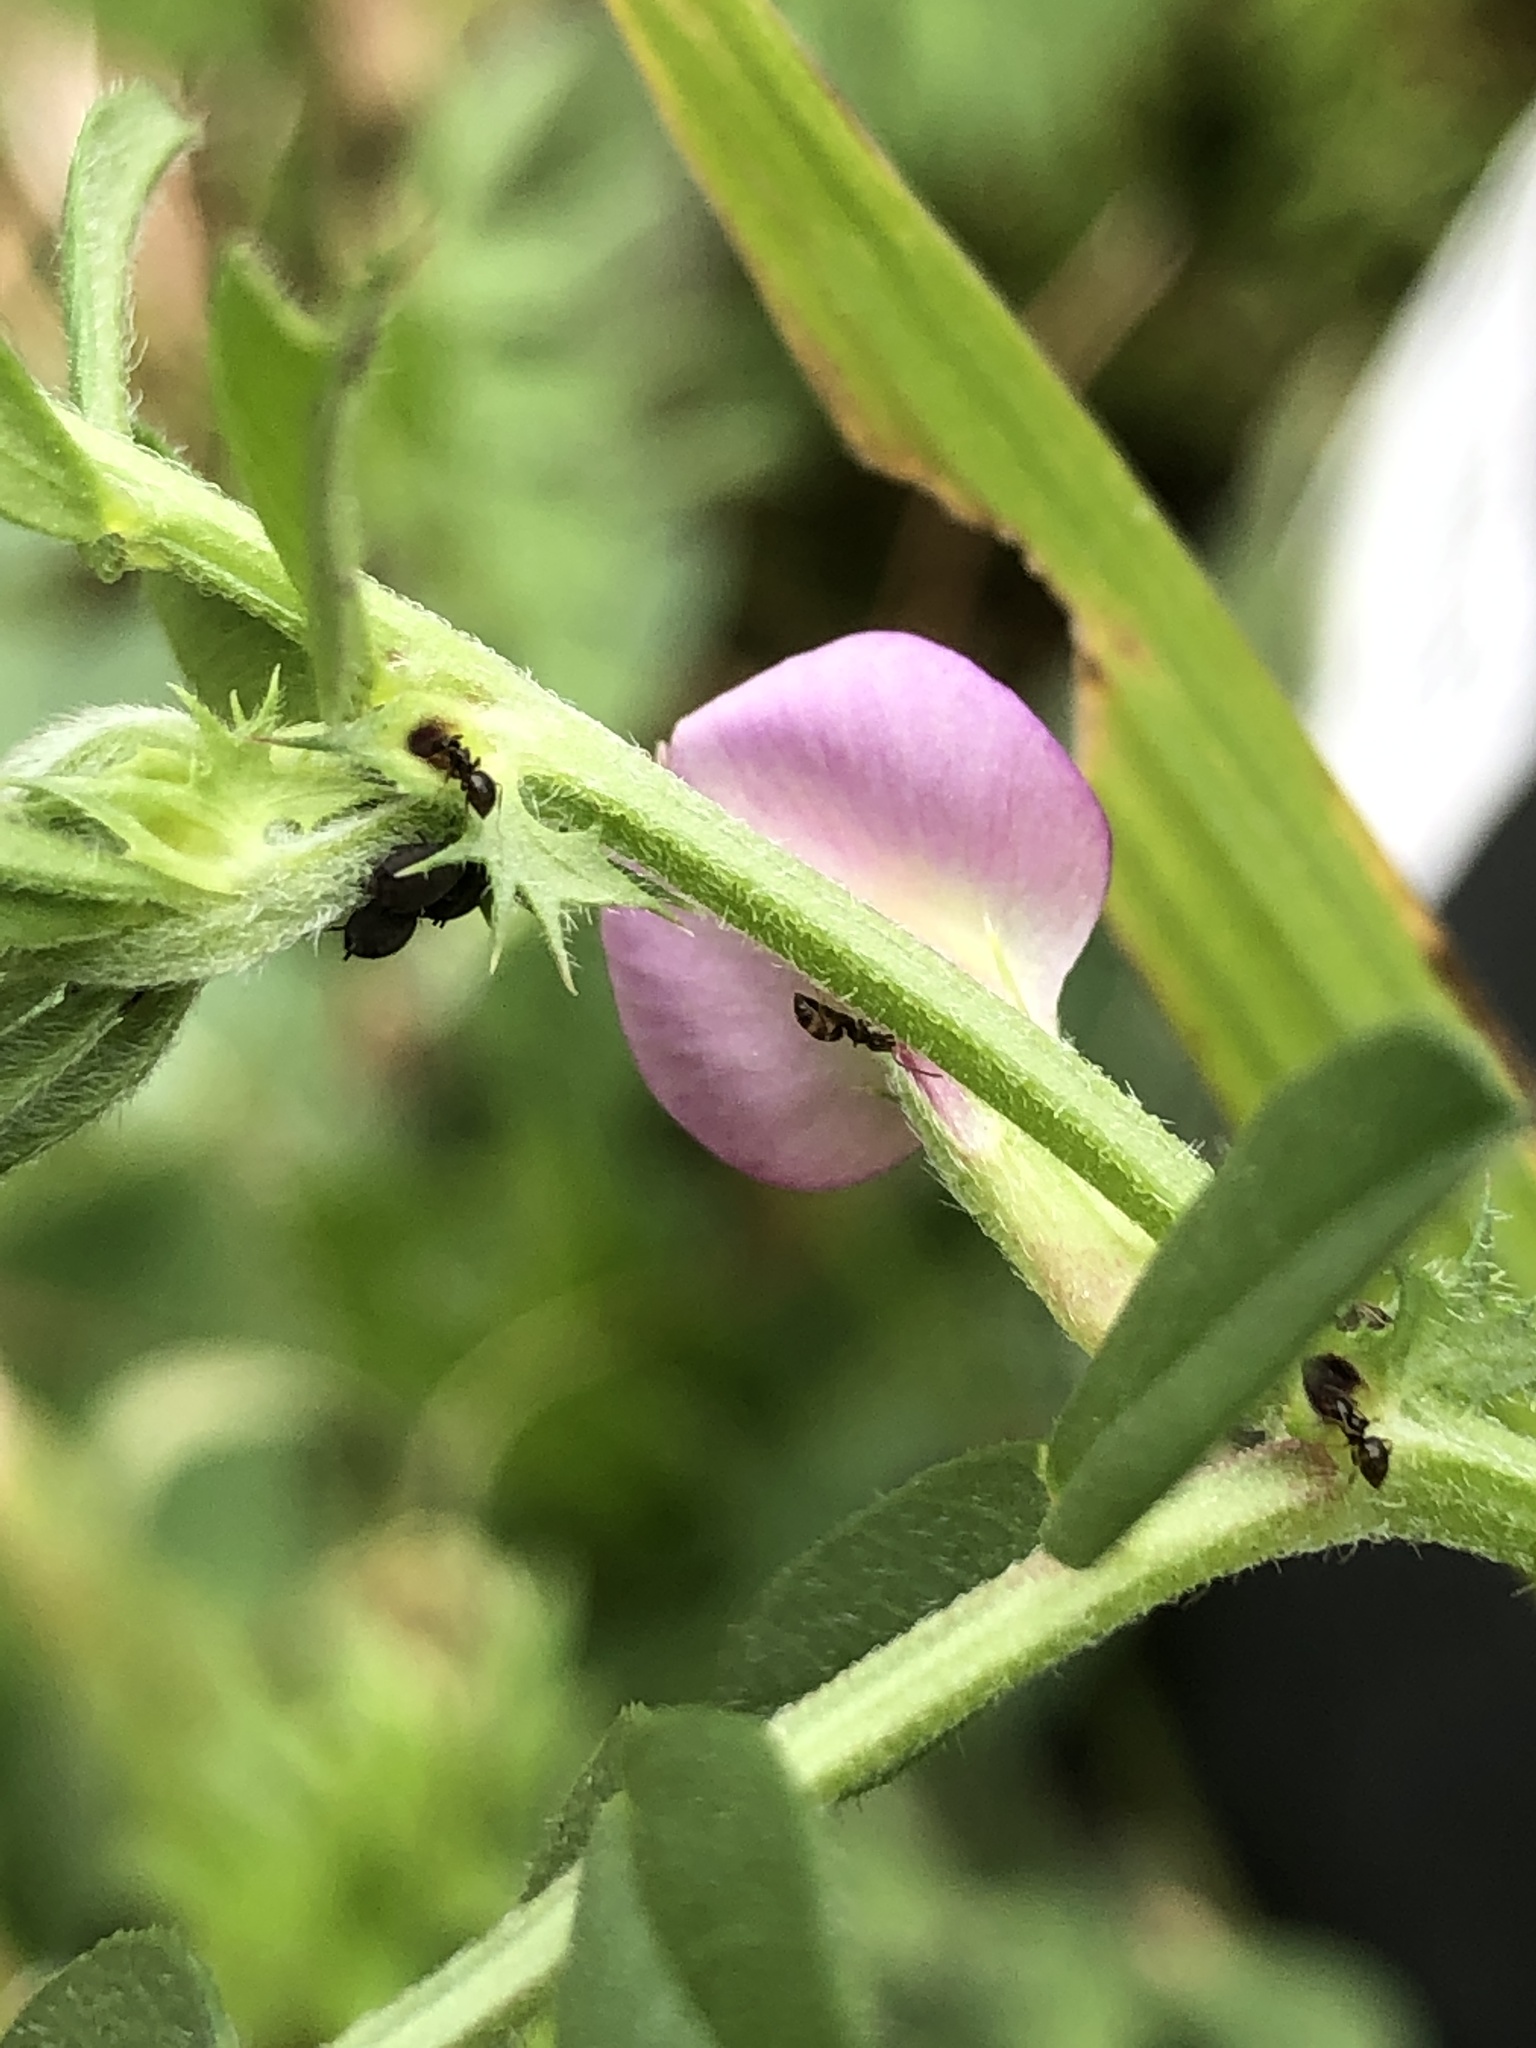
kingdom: Animalia
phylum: Arthropoda
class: Insecta
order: Hymenoptera
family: Formicidae
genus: Brachymyrmex
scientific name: Brachymyrmex patagonicus
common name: Dark rover ant
